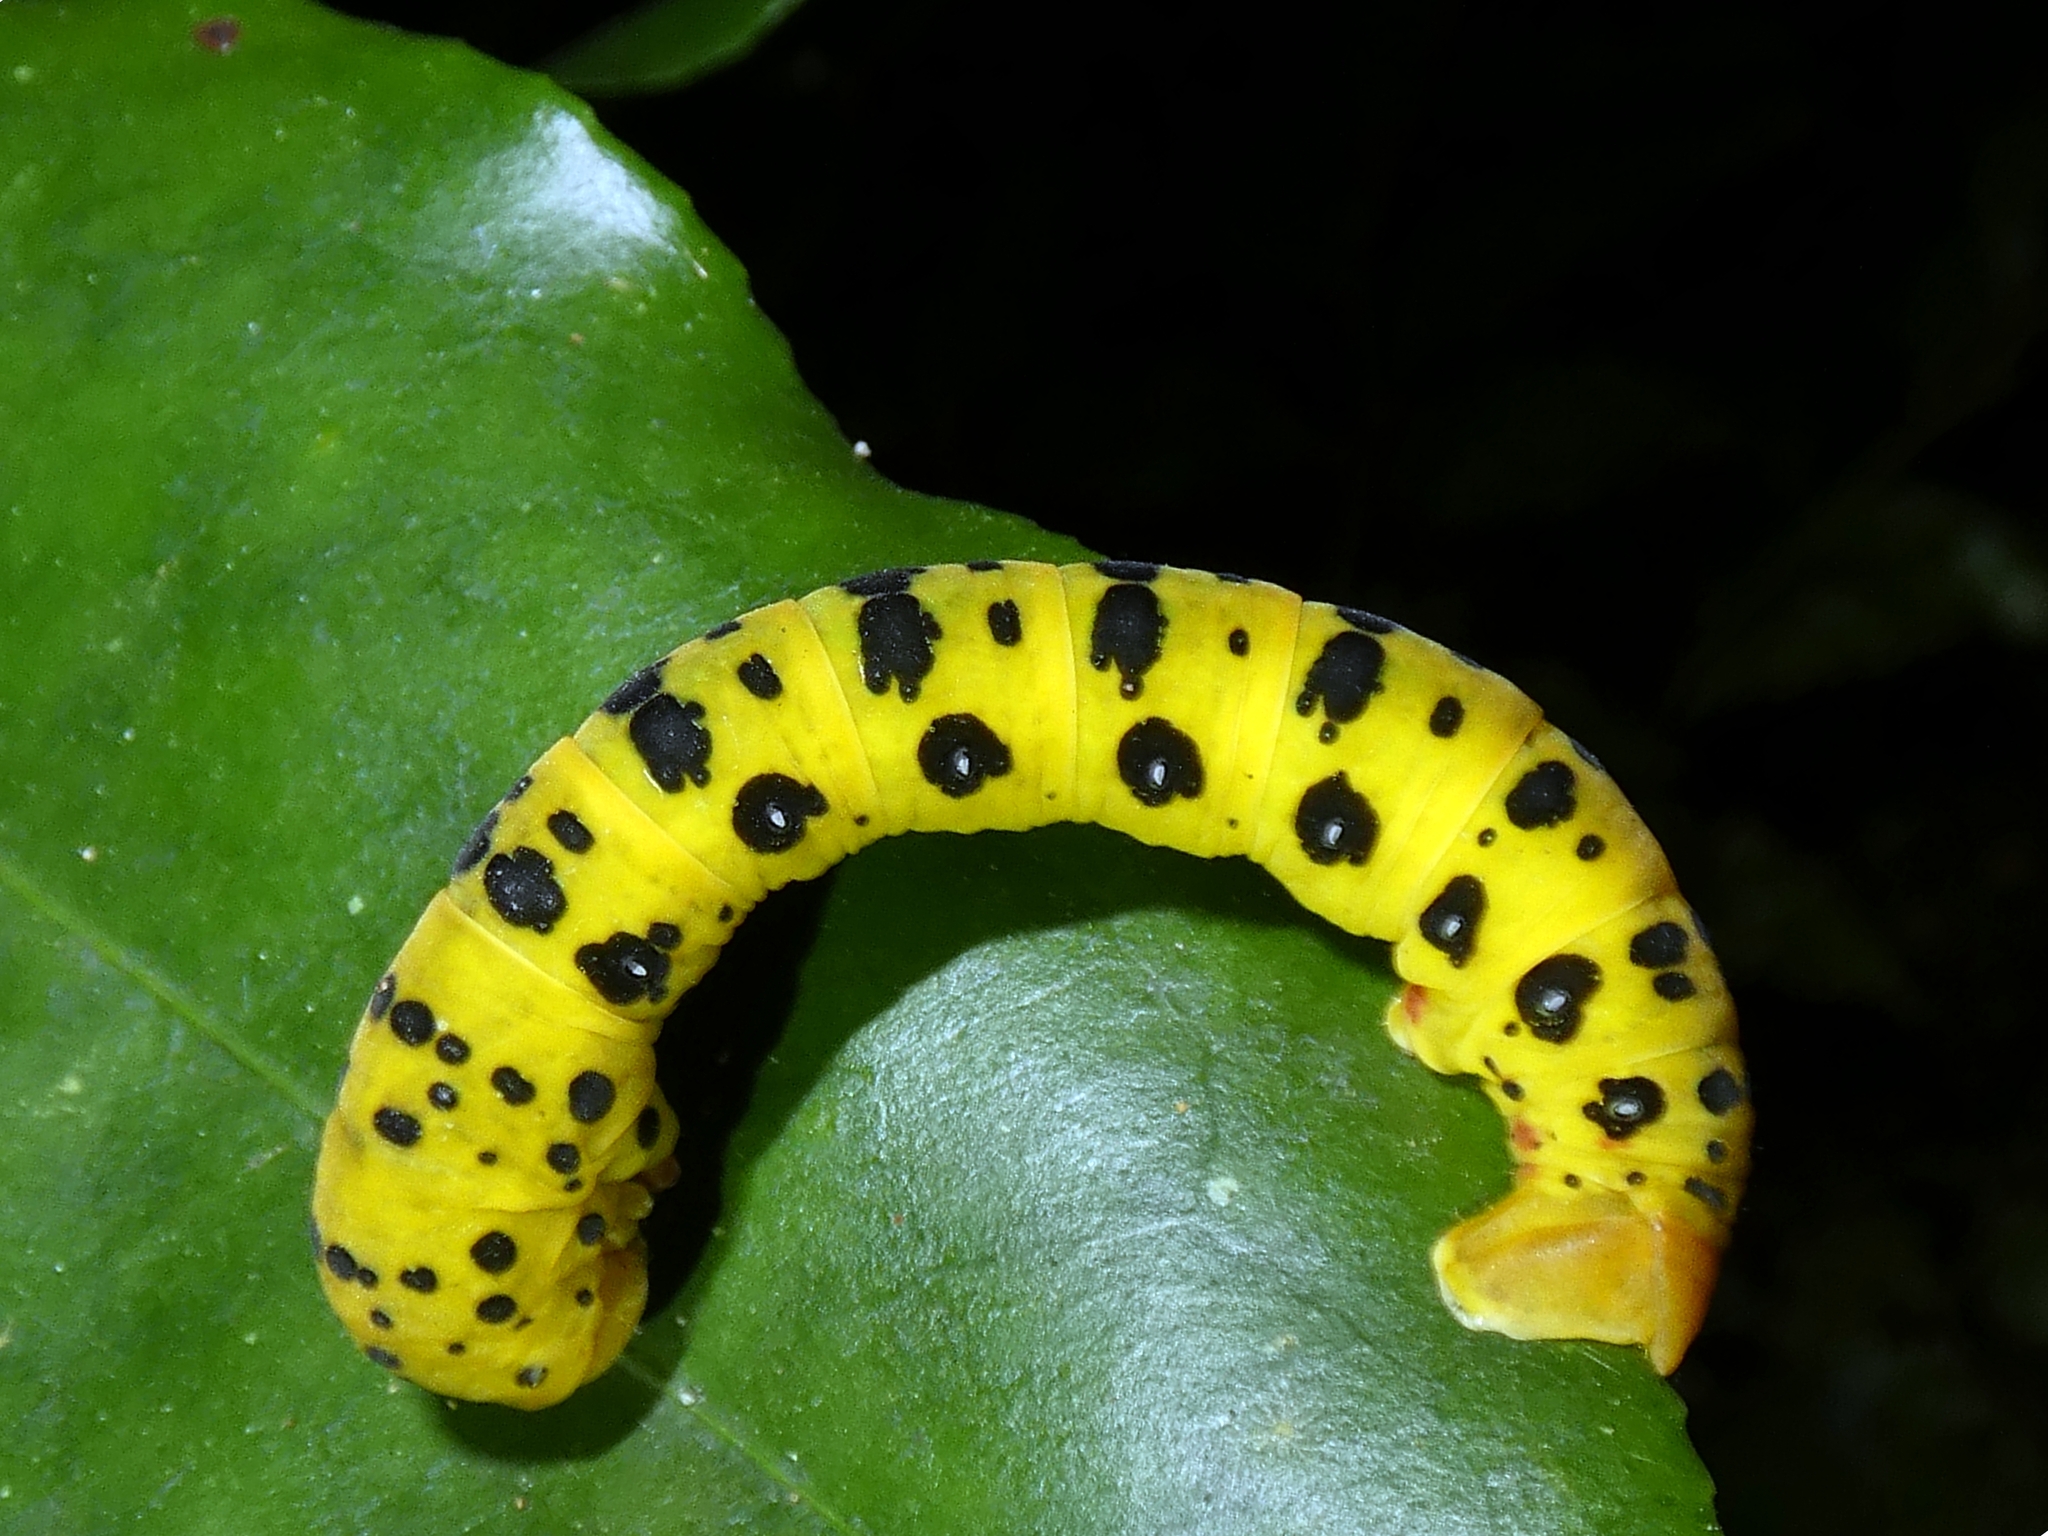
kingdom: Animalia
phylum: Arthropoda
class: Insecta
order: Lepidoptera
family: Geometridae
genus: Dysphania
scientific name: Dysphania numana
